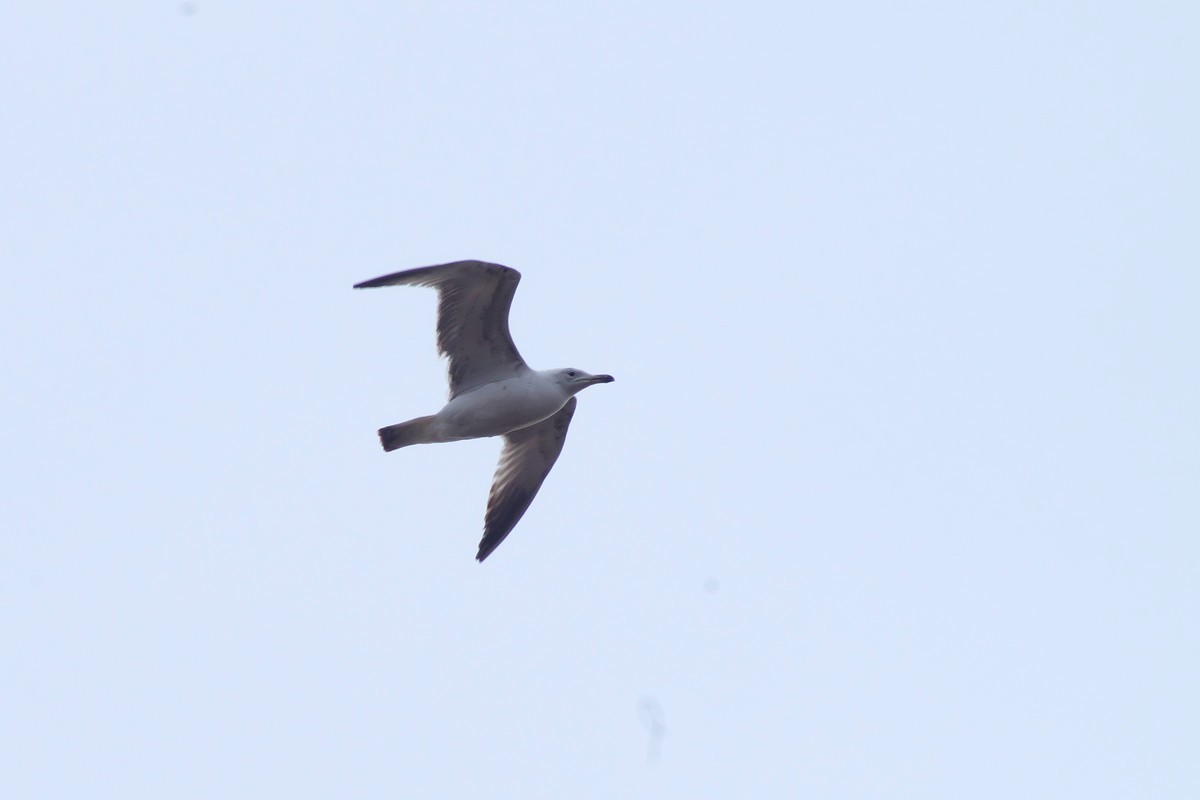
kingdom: Animalia
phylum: Chordata
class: Aves
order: Charadriiformes
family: Laridae
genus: Larus
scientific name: Larus argentatus
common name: Herring gull
